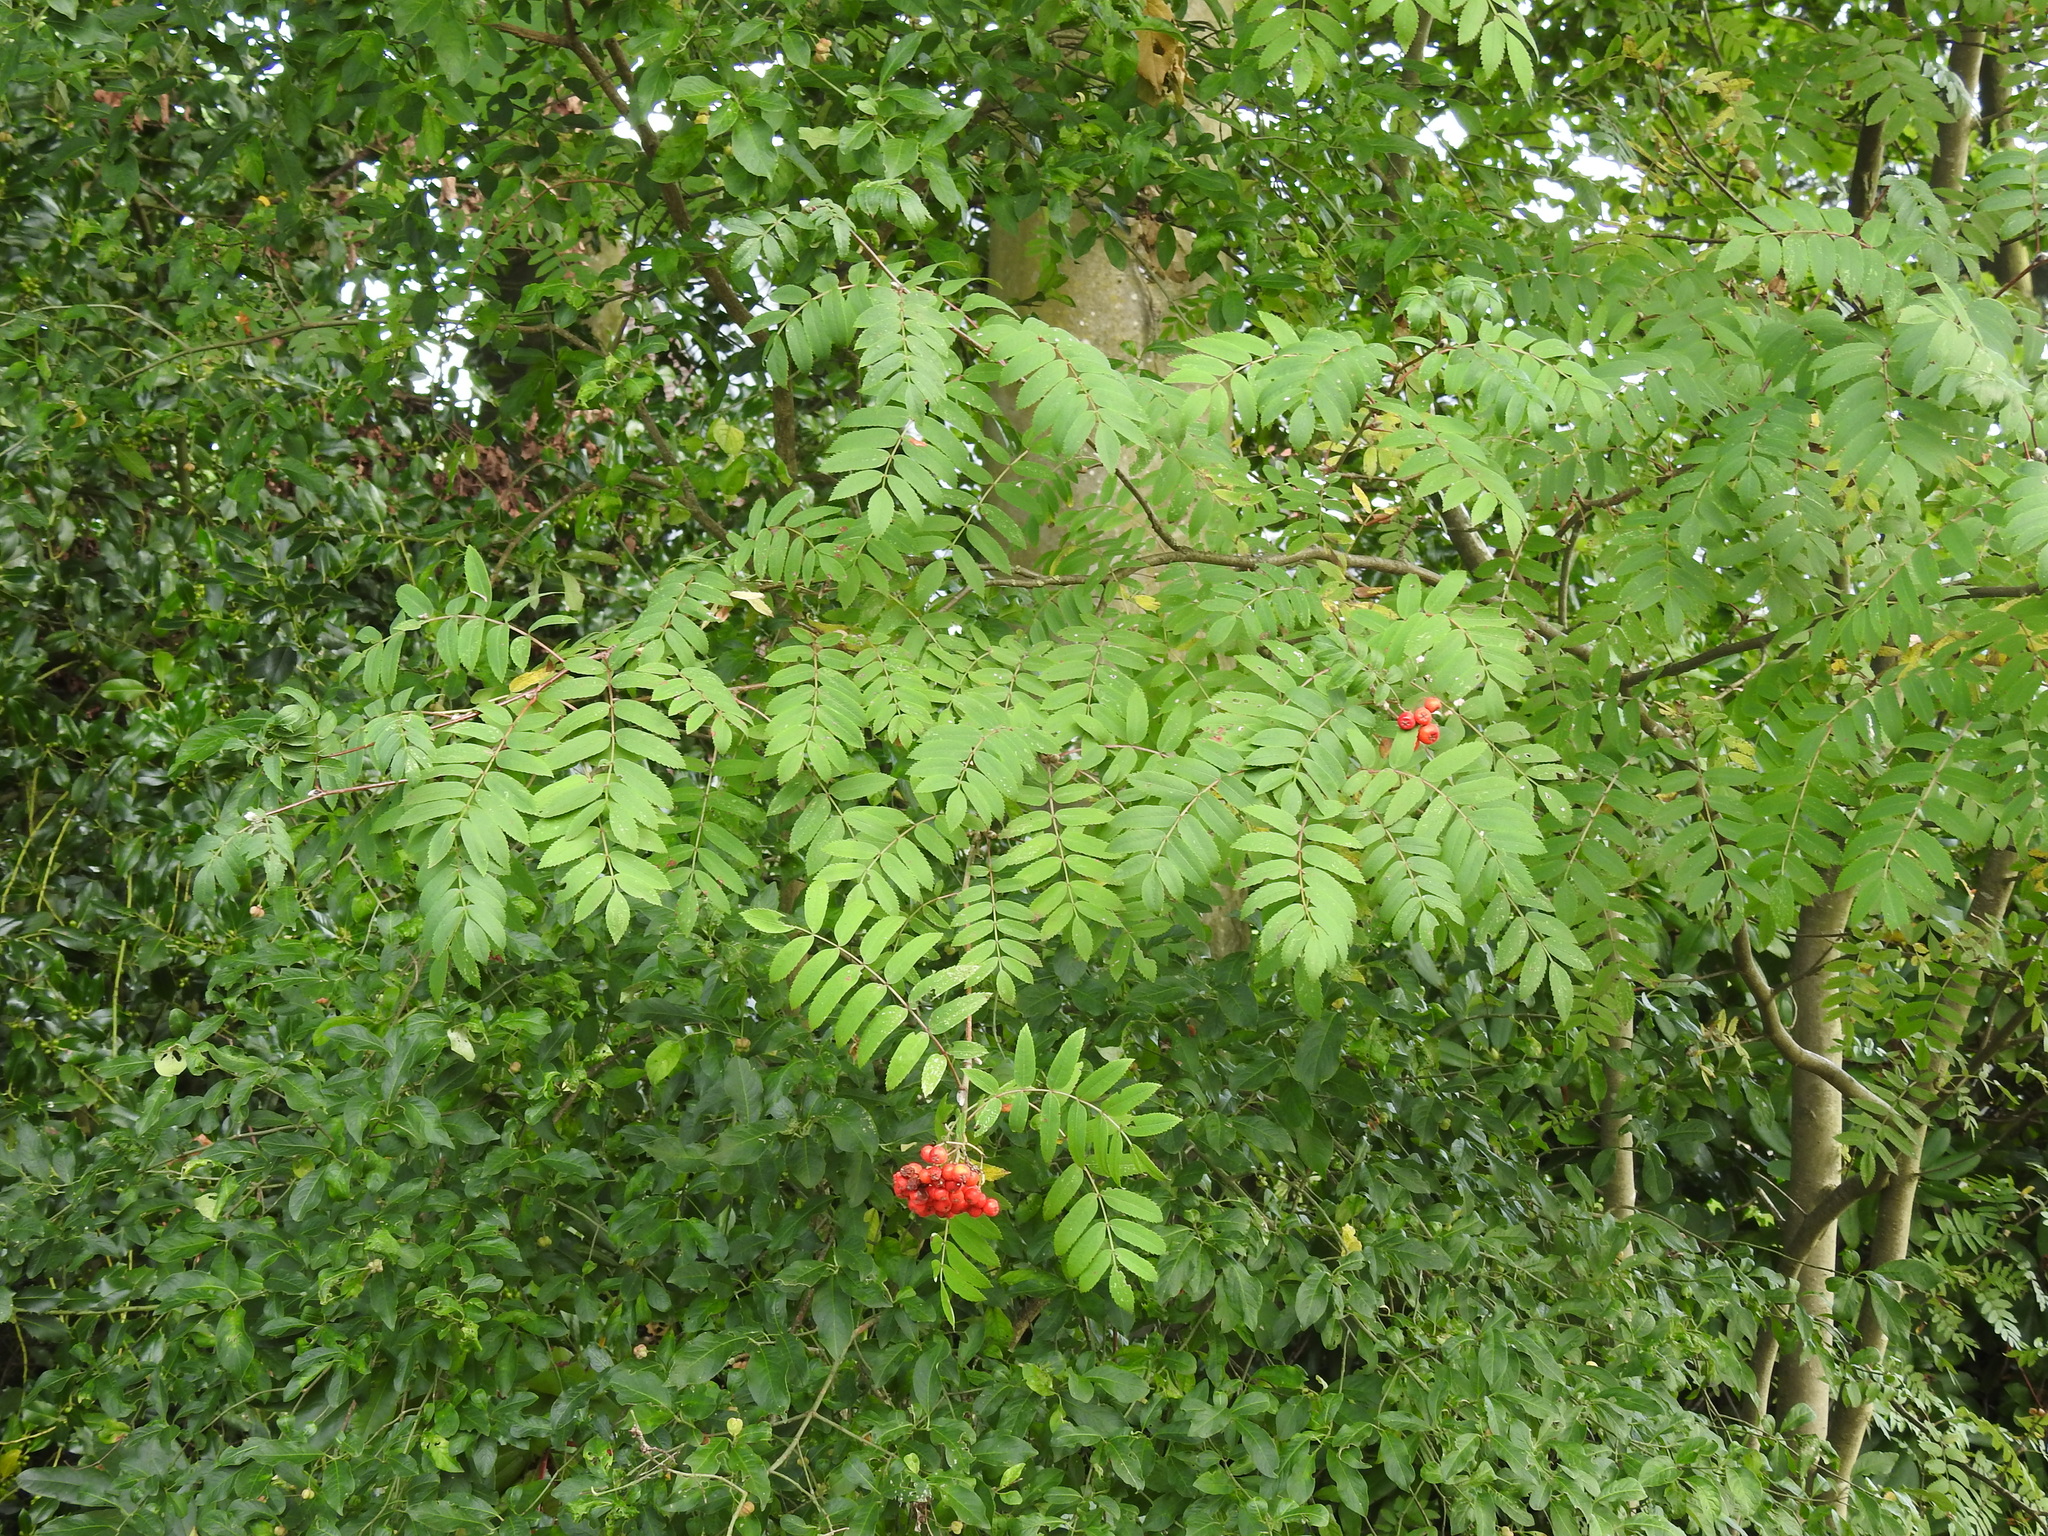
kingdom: Plantae
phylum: Tracheophyta
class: Magnoliopsida
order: Rosales
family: Rosaceae
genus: Sorbus
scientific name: Sorbus aucuparia
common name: Rowan
